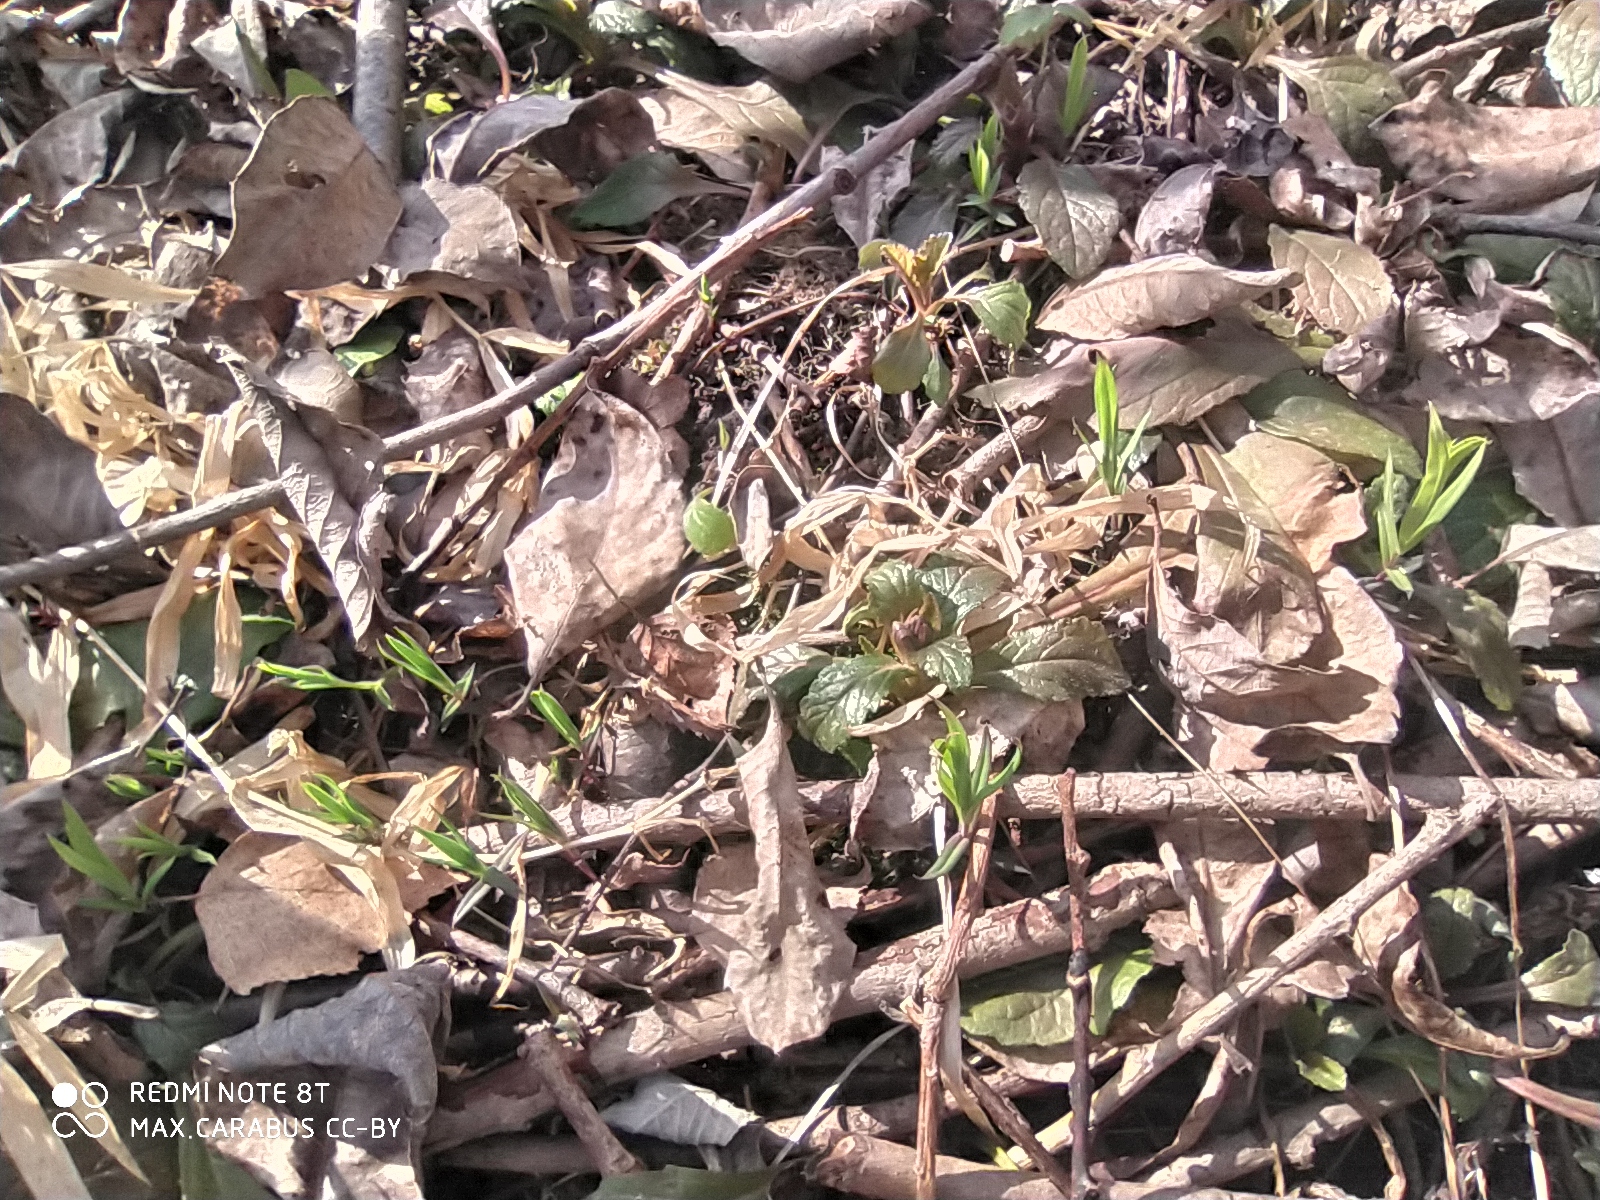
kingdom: Plantae
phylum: Tracheophyta
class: Magnoliopsida
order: Caryophyllales
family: Caryophyllaceae
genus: Rabelera
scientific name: Rabelera holostea
